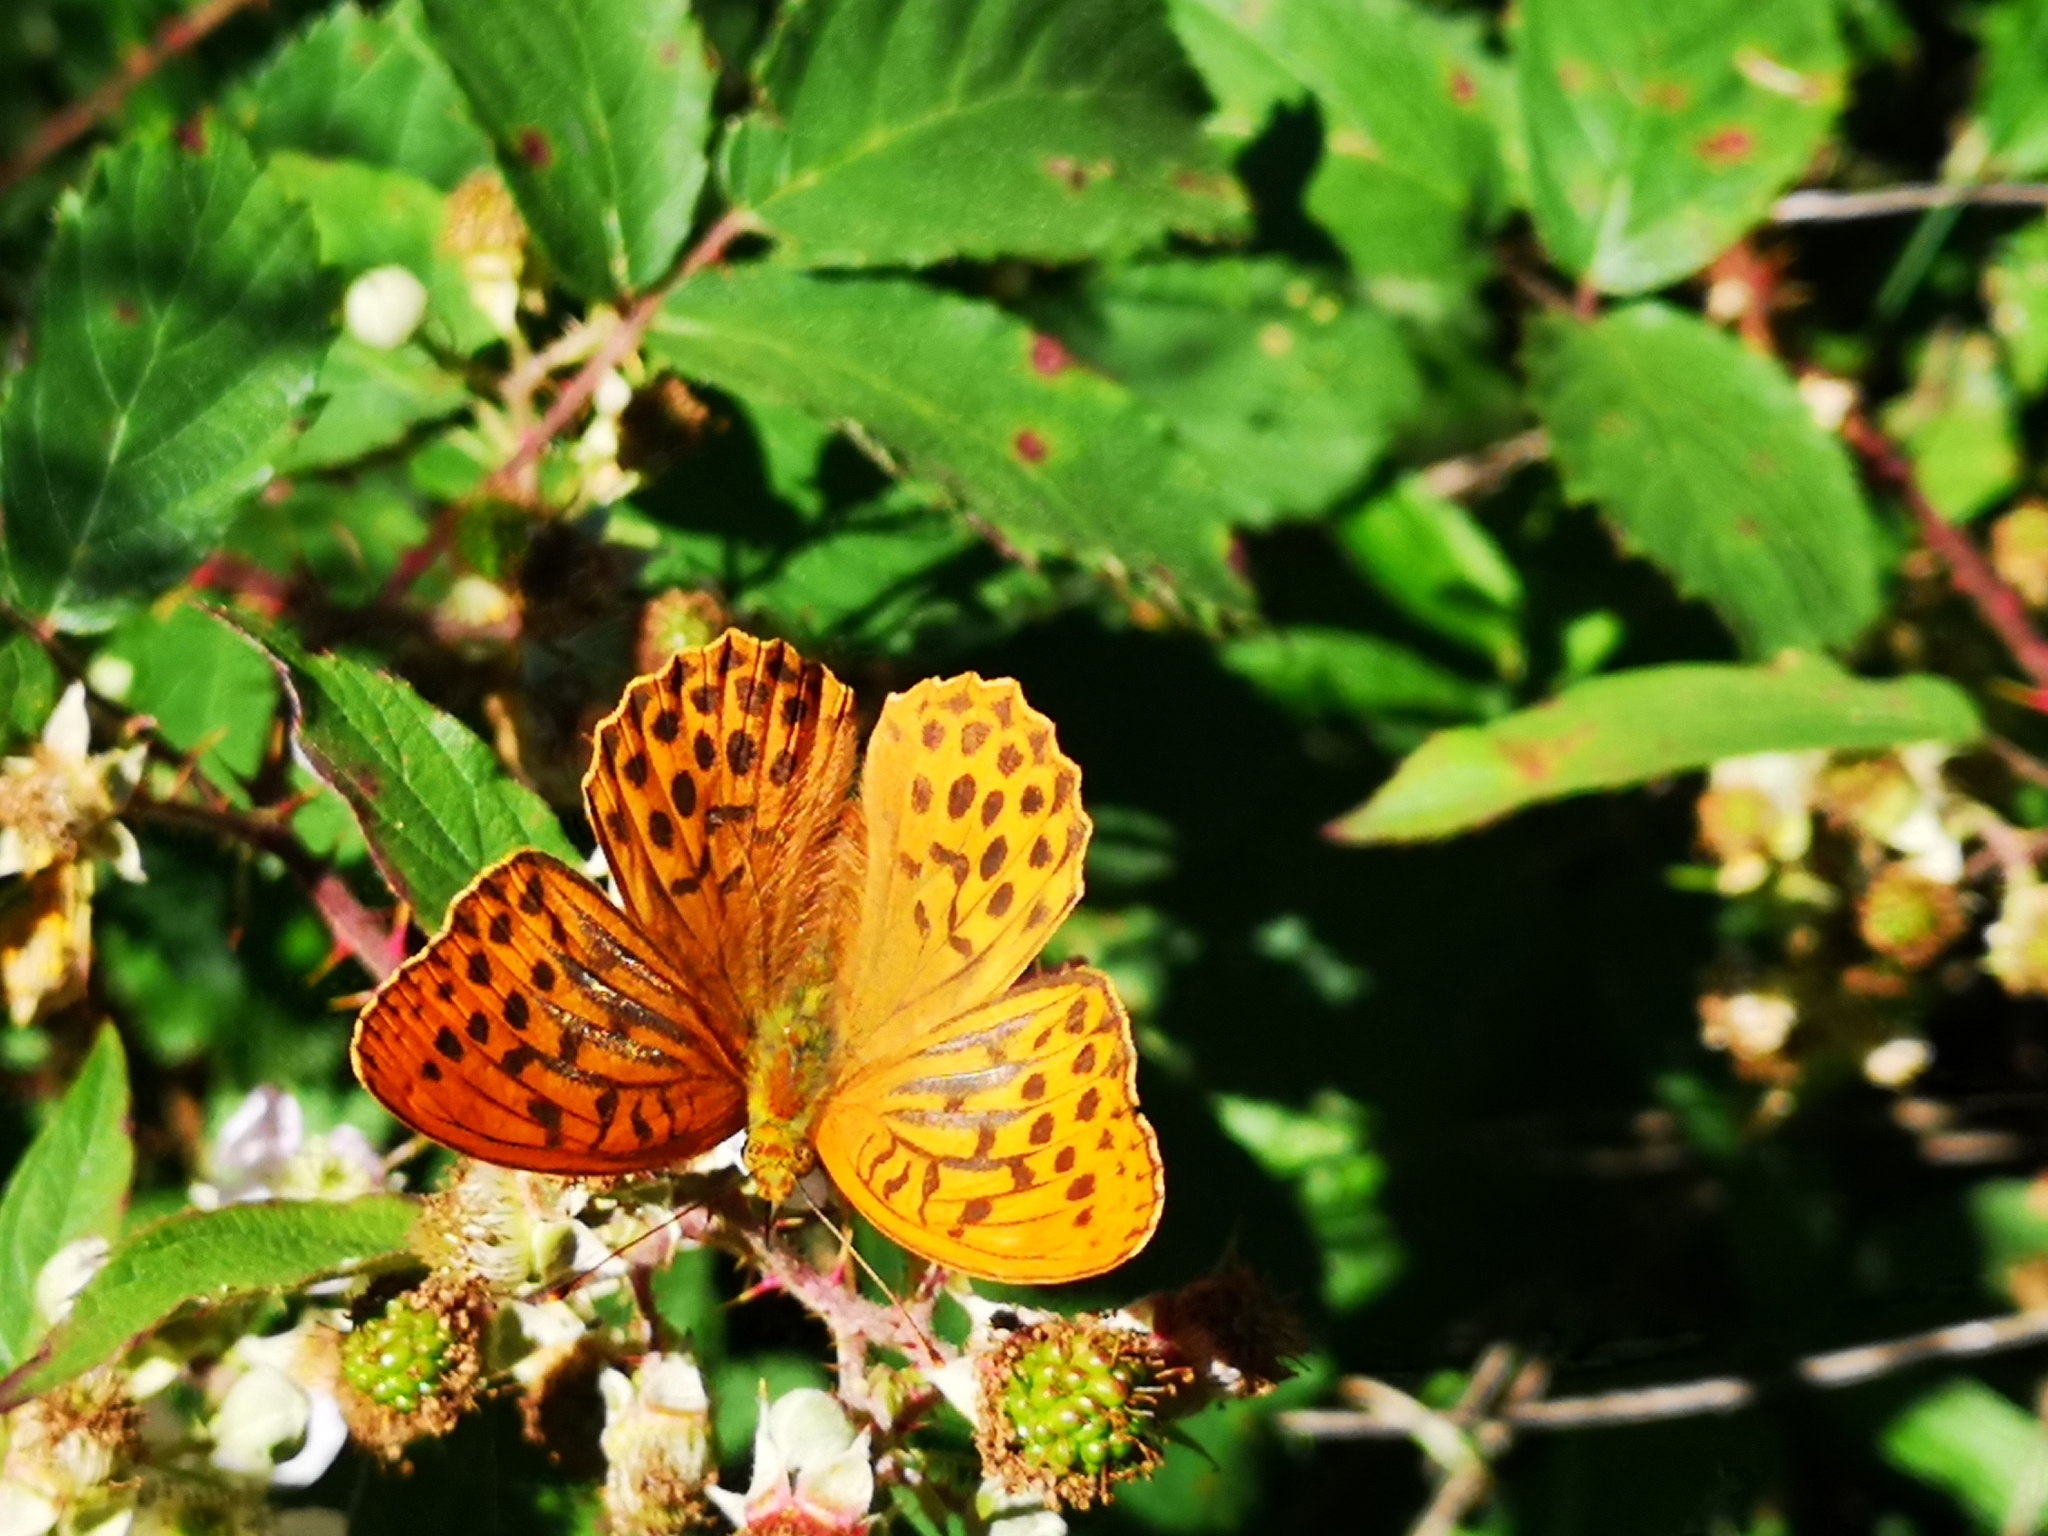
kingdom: Animalia
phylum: Arthropoda
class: Insecta
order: Lepidoptera
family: Nymphalidae
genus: Argynnis
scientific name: Argynnis paphia
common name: Silver-washed fritillary
